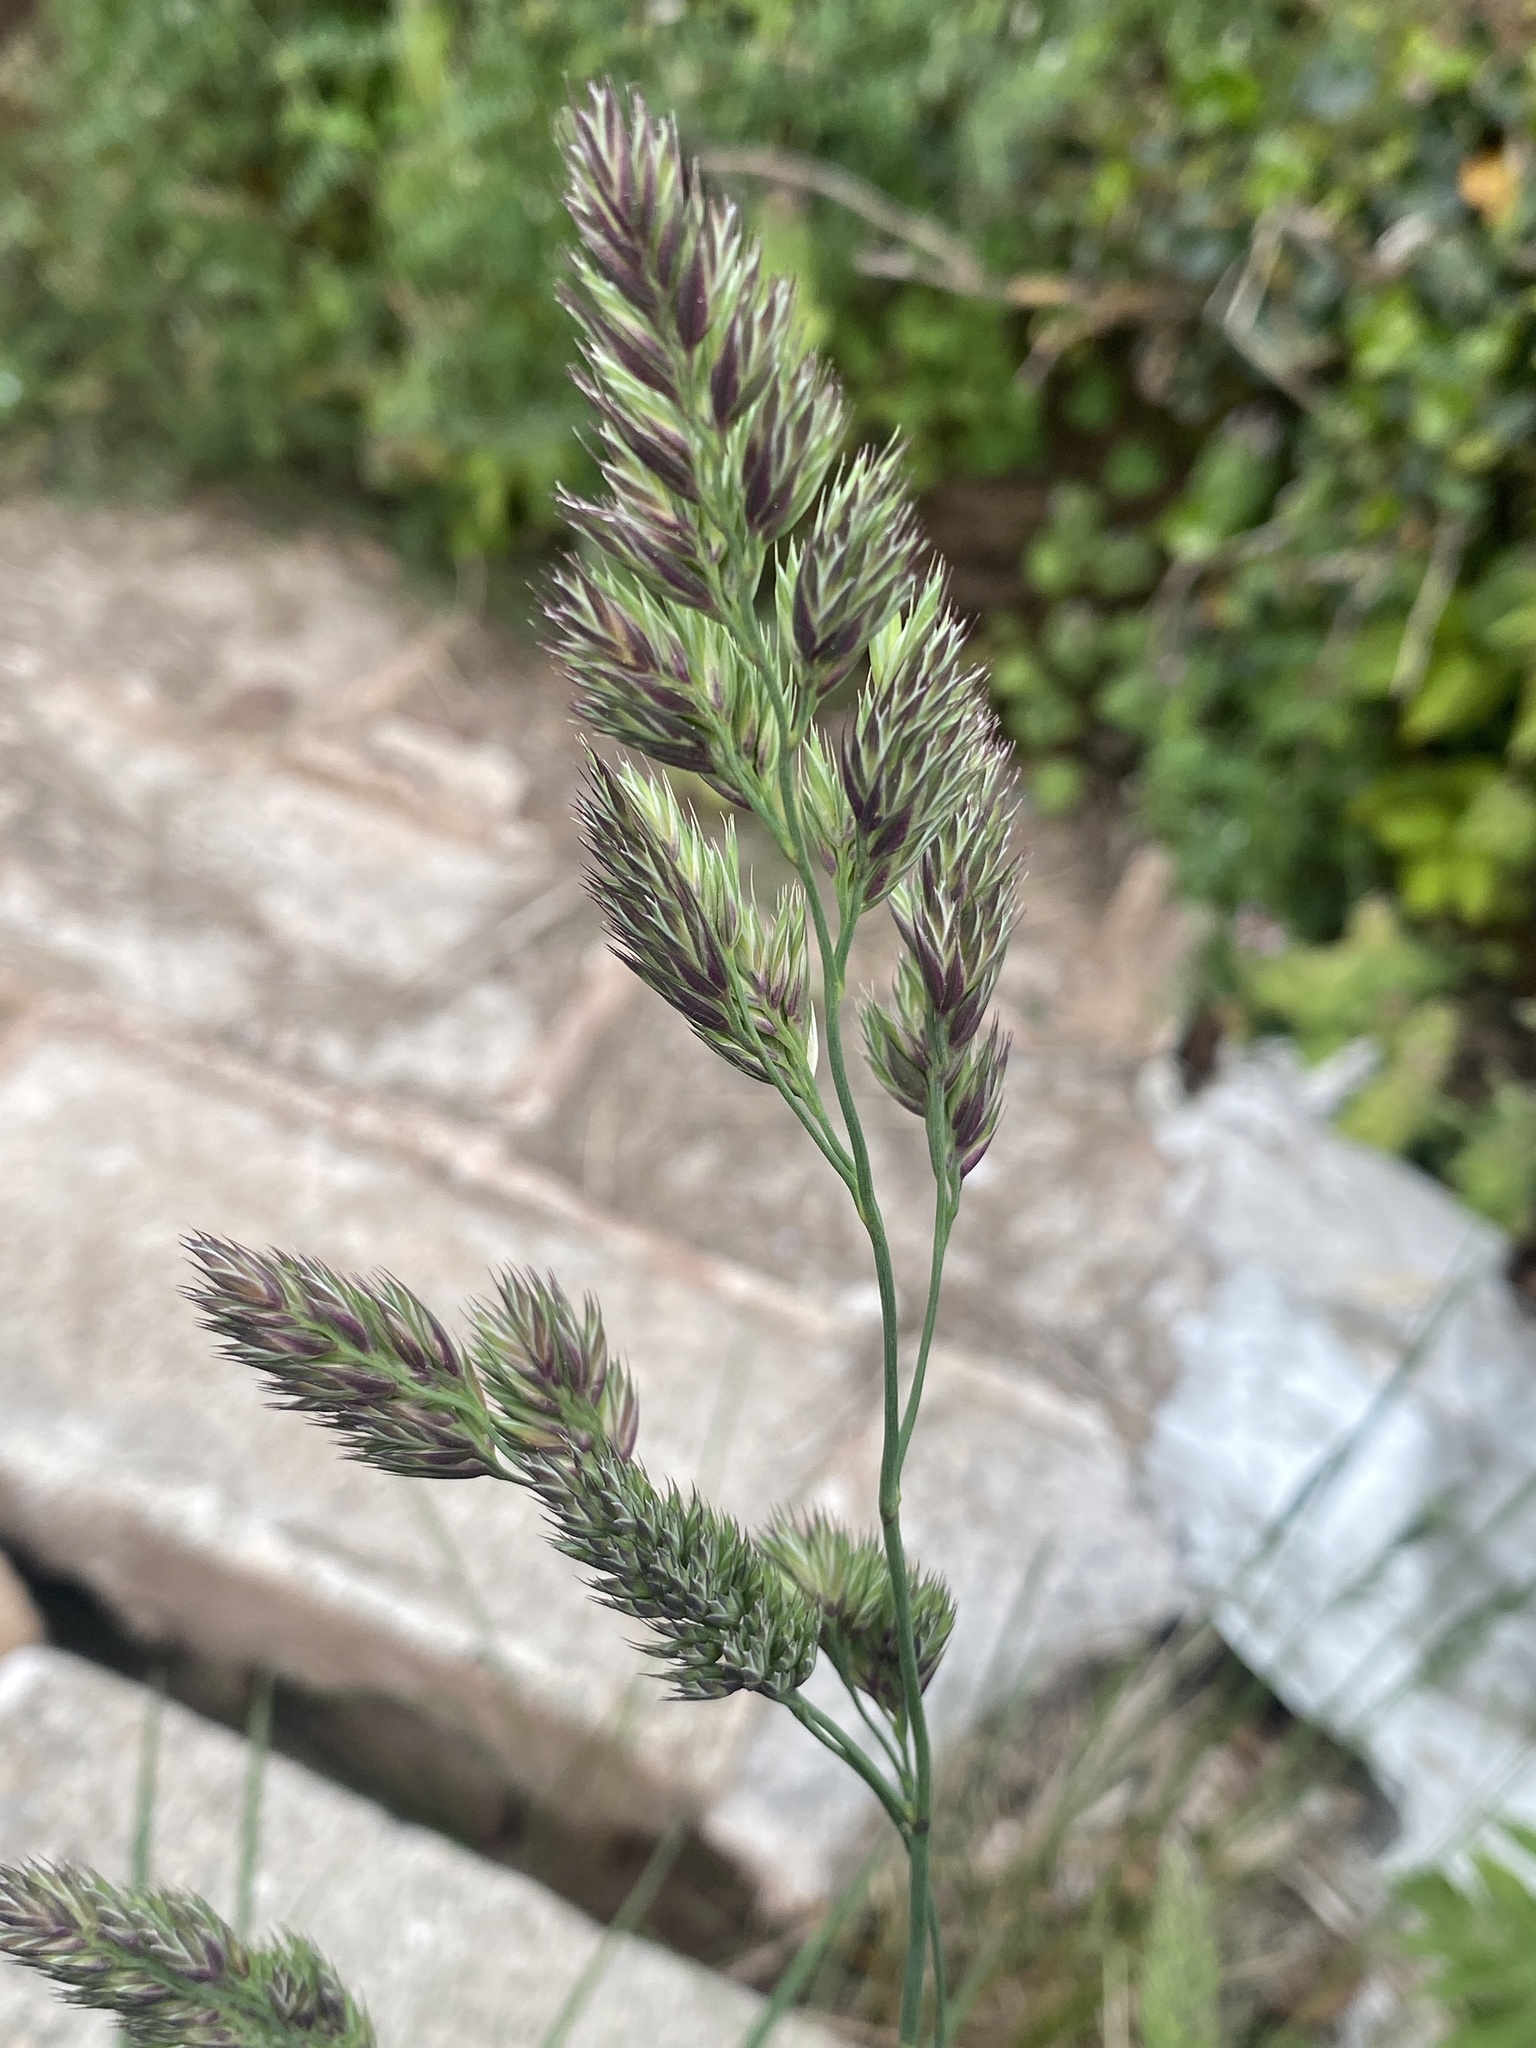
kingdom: Plantae
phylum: Tracheophyta
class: Liliopsida
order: Poales
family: Poaceae
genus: Dactylis
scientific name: Dactylis glomerata
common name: Orchardgrass
